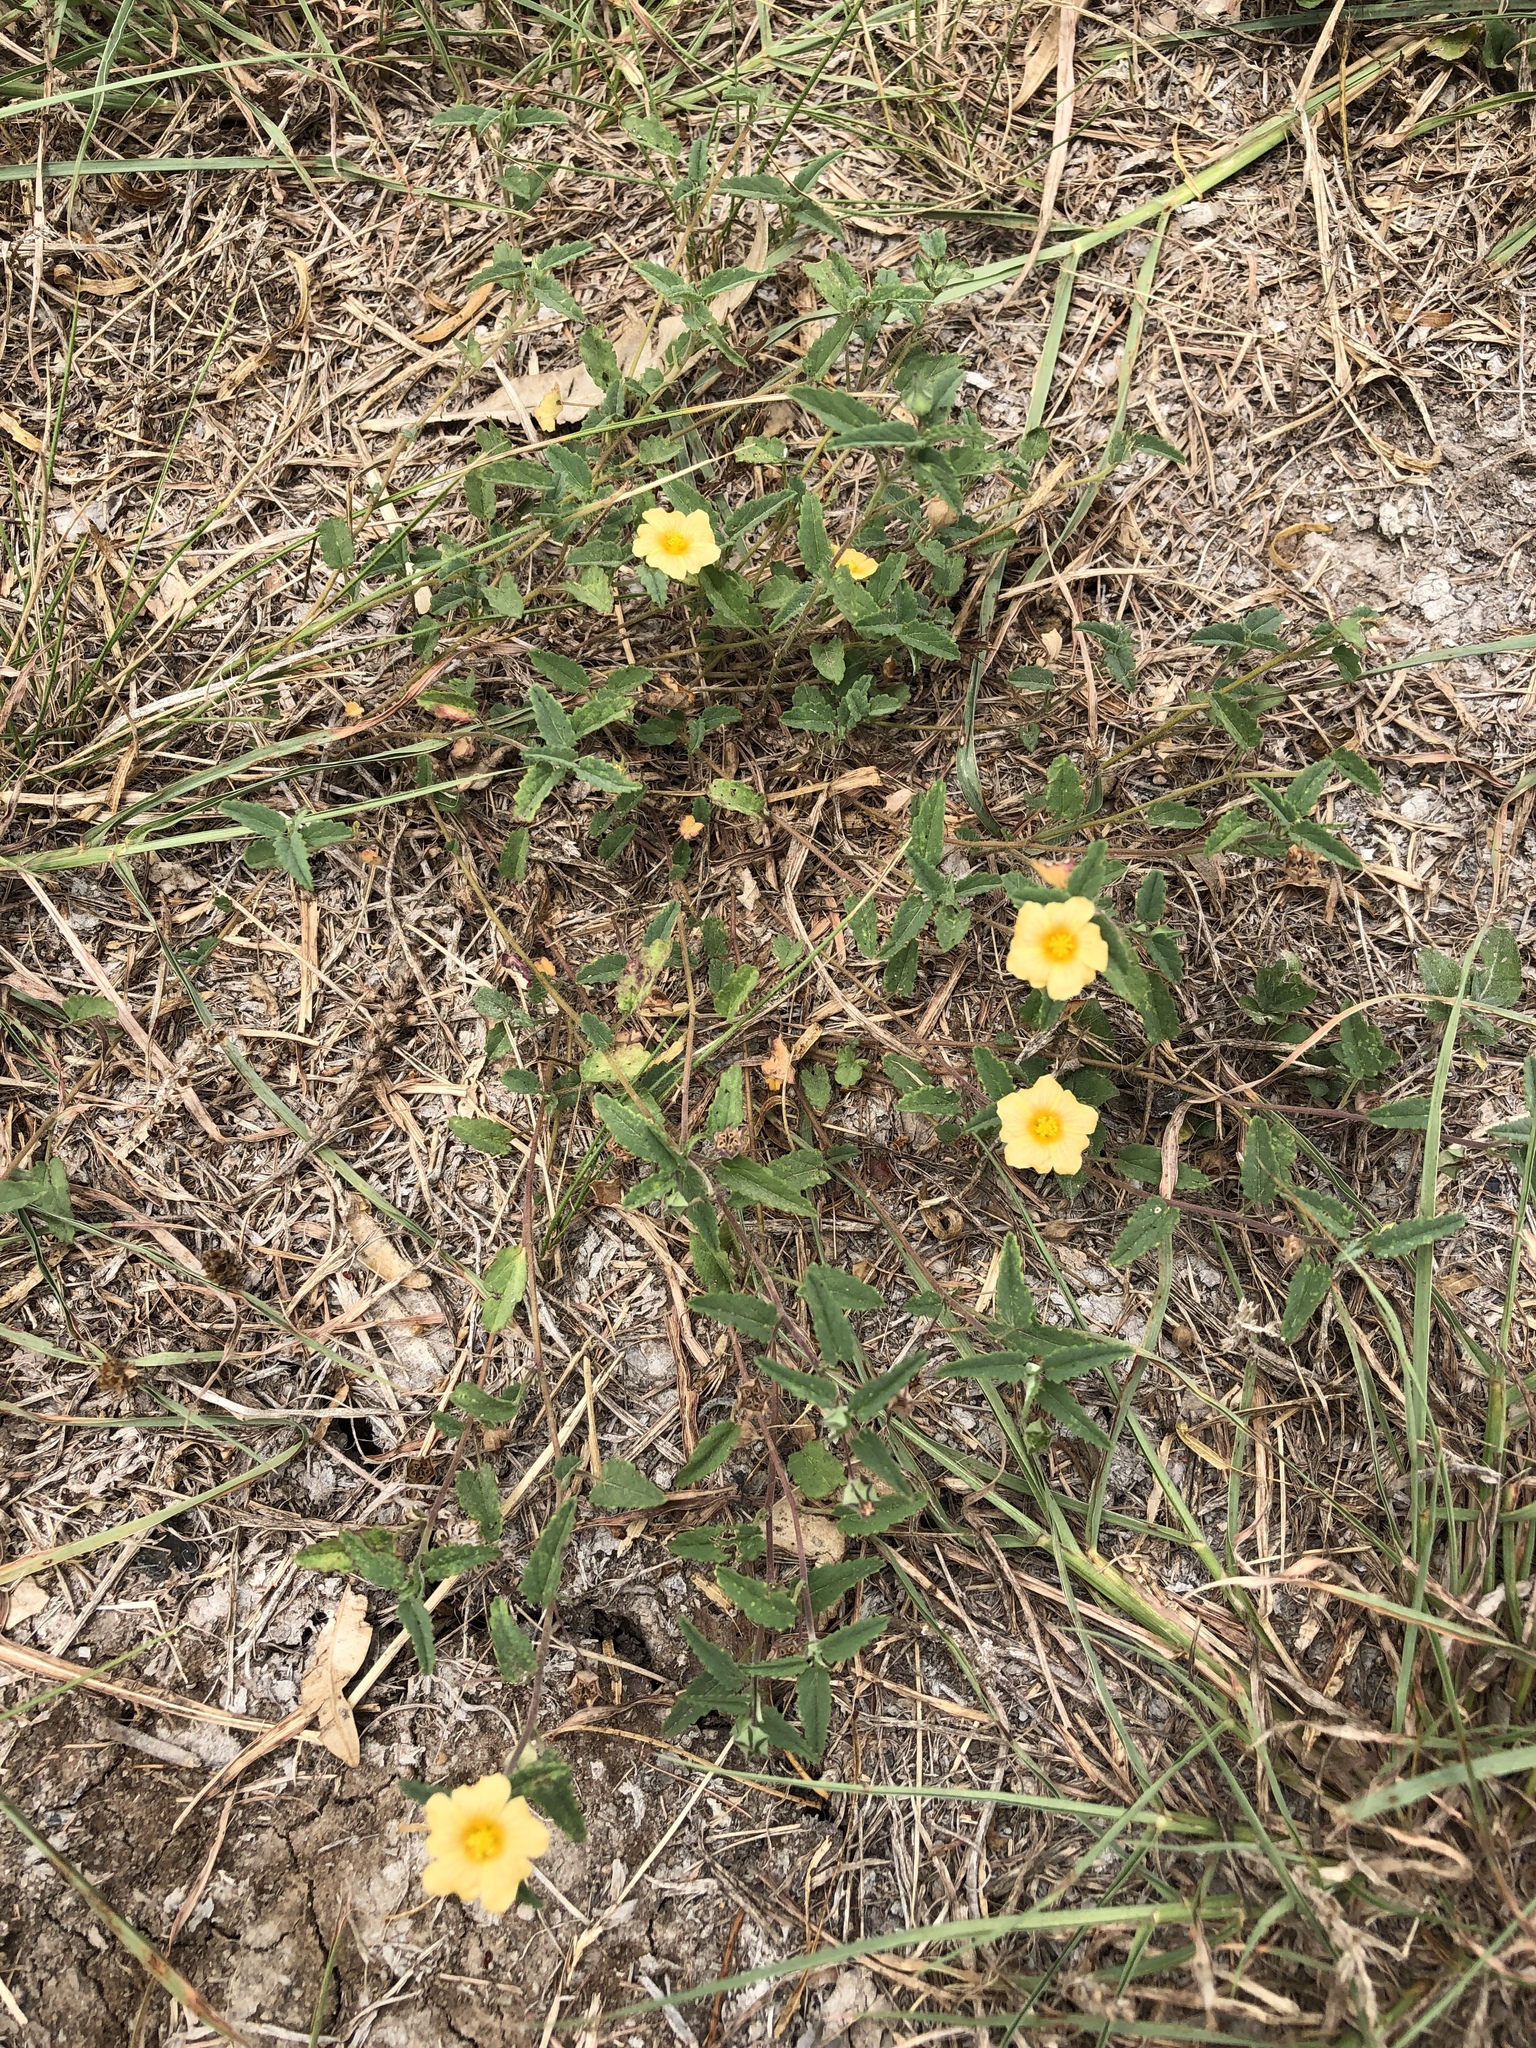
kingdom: Plantae
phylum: Tracheophyta
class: Magnoliopsida
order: Malvales
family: Malvaceae
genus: Sida
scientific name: Sida abutilifolia
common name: Spreading fanpetals
